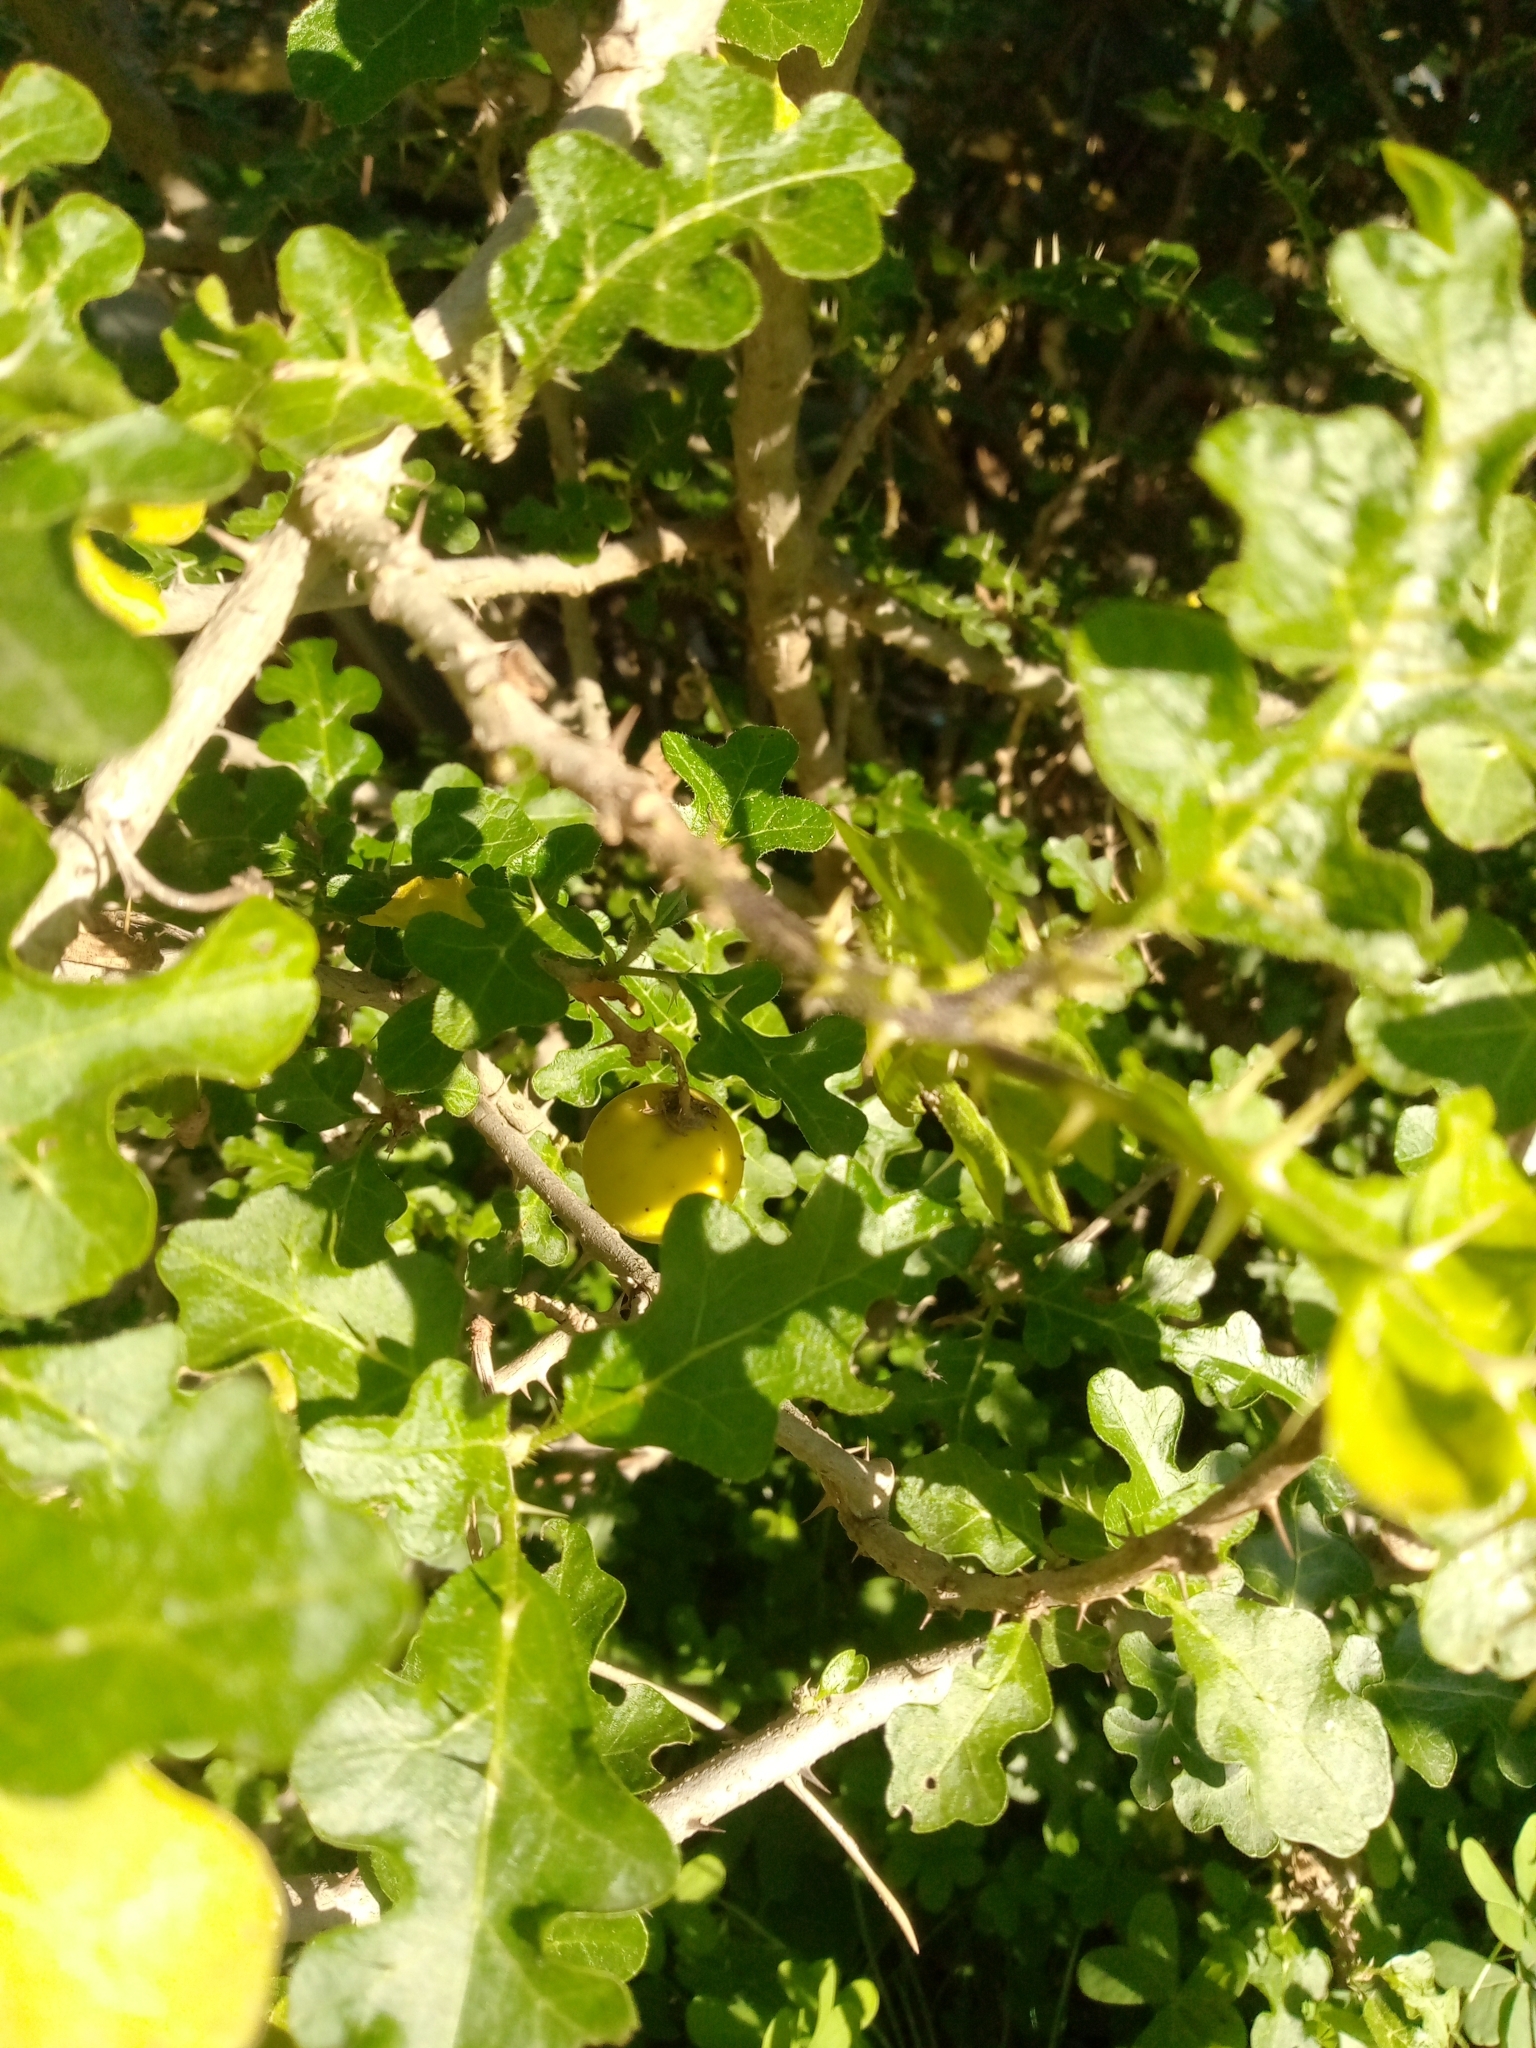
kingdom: Plantae
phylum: Tracheophyta
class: Magnoliopsida
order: Solanales
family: Solanaceae
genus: Solanum
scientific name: Solanum linnaeanum
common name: Nightshade
